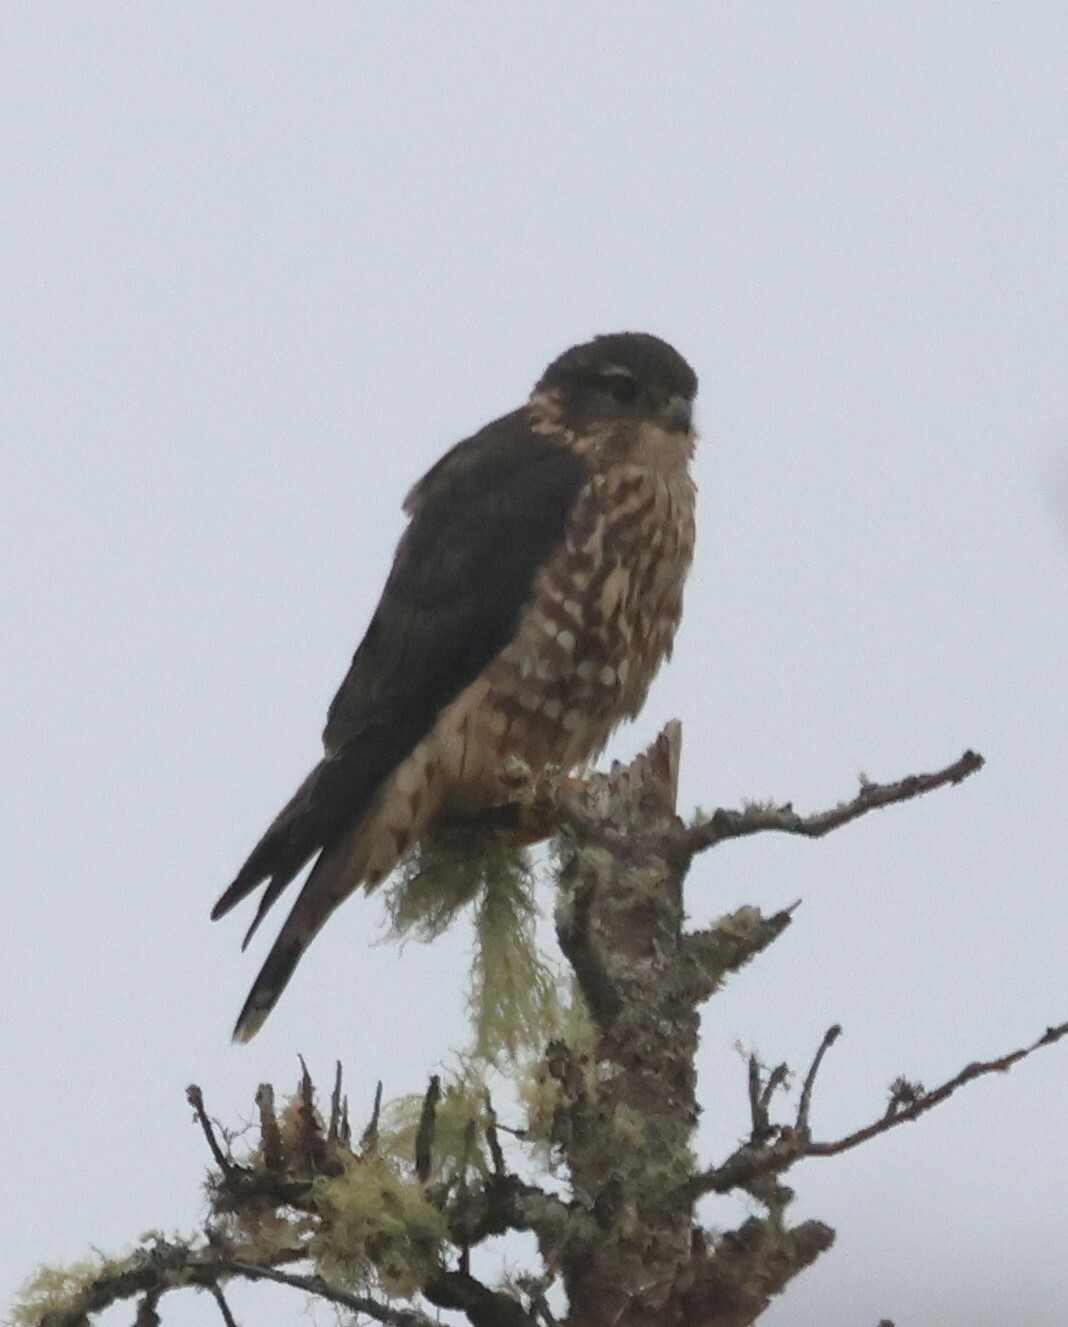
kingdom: Animalia
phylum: Chordata
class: Aves
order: Falconiformes
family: Falconidae
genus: Falco
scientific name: Falco columbarius
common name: Merlin
